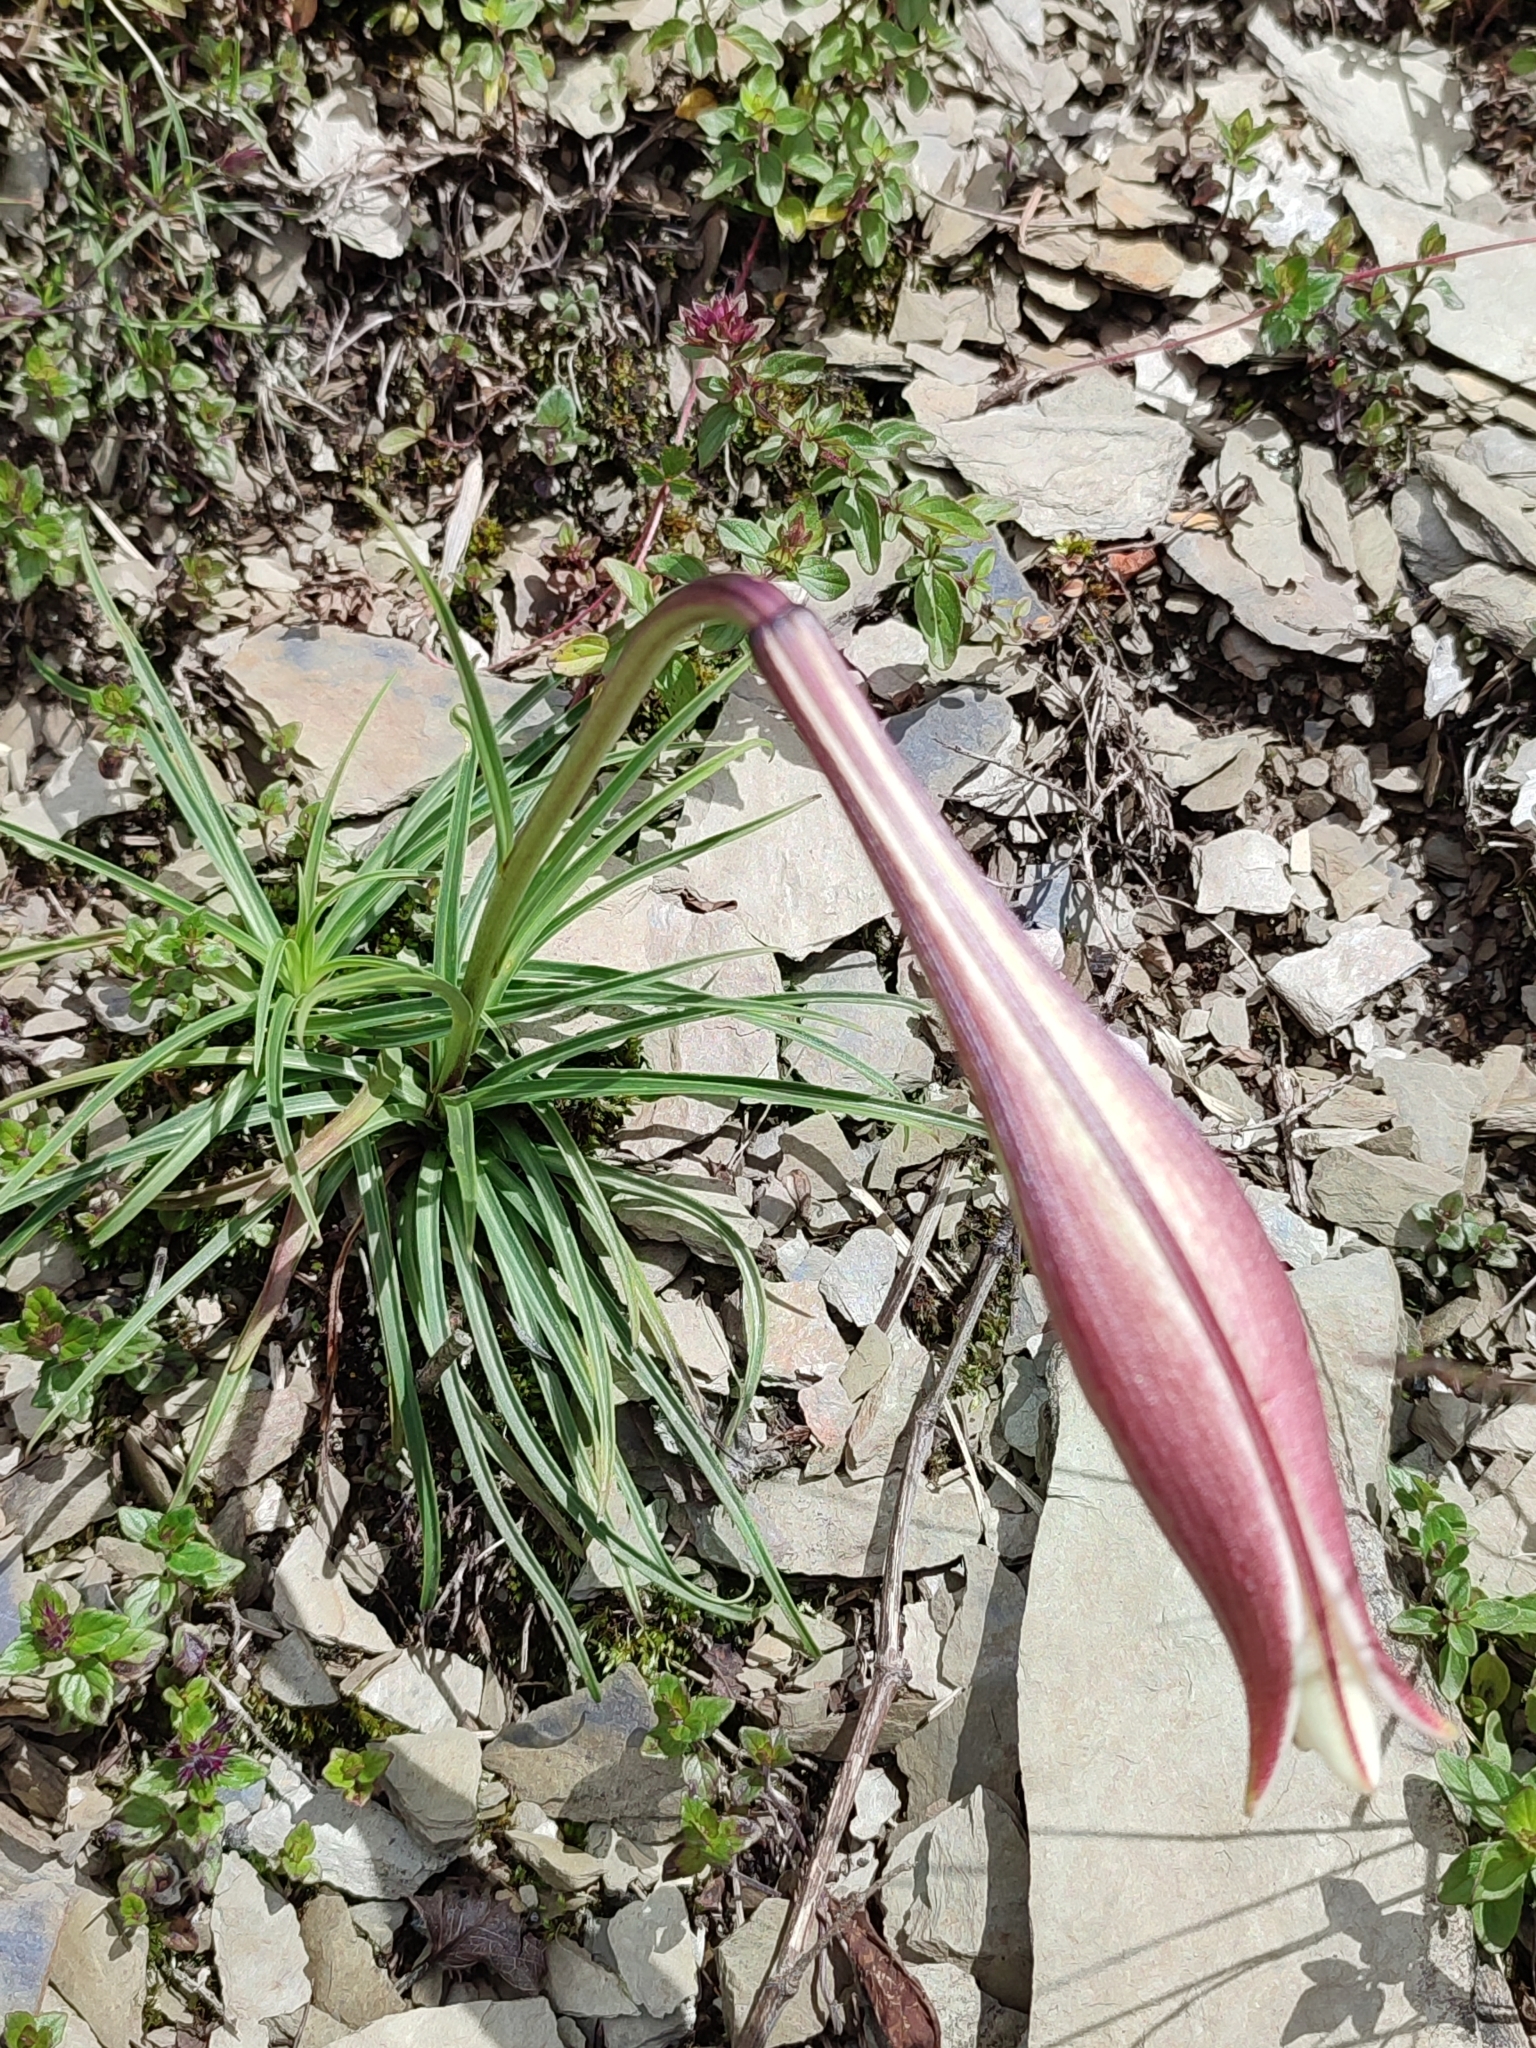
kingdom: Plantae
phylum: Tracheophyta
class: Liliopsida
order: Liliales
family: Liliaceae
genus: Lilium
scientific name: Lilium formosanum
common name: Formosa lily
